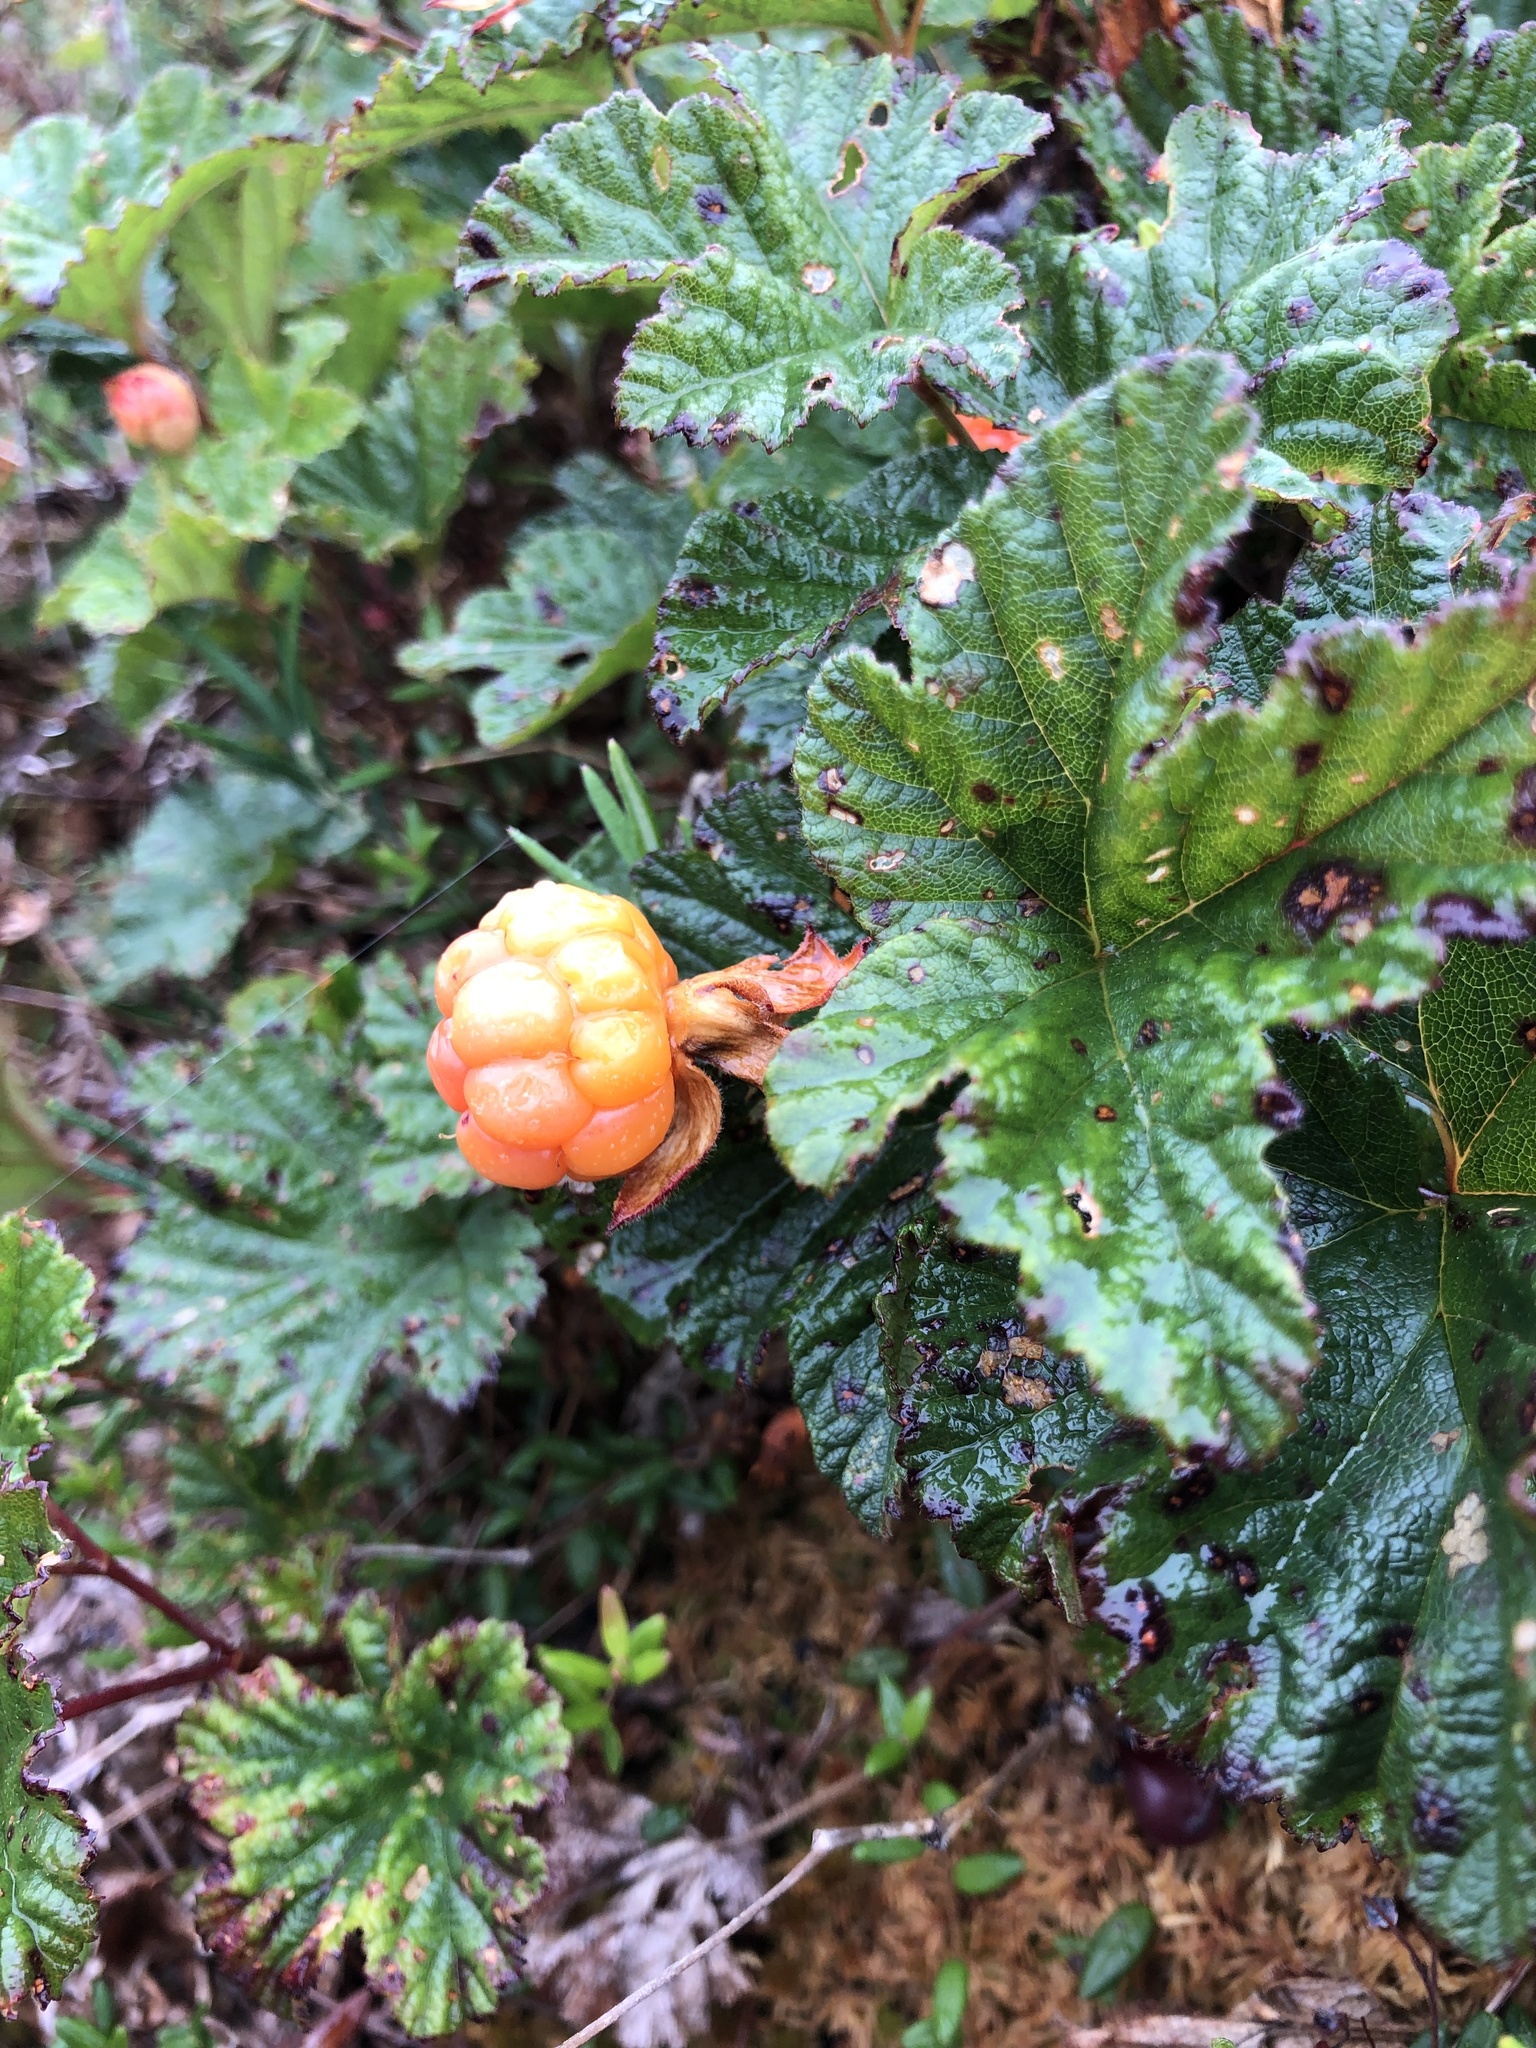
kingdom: Plantae
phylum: Tracheophyta
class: Magnoliopsida
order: Rosales
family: Rosaceae
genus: Rubus
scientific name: Rubus chamaemorus
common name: Cloudberry
